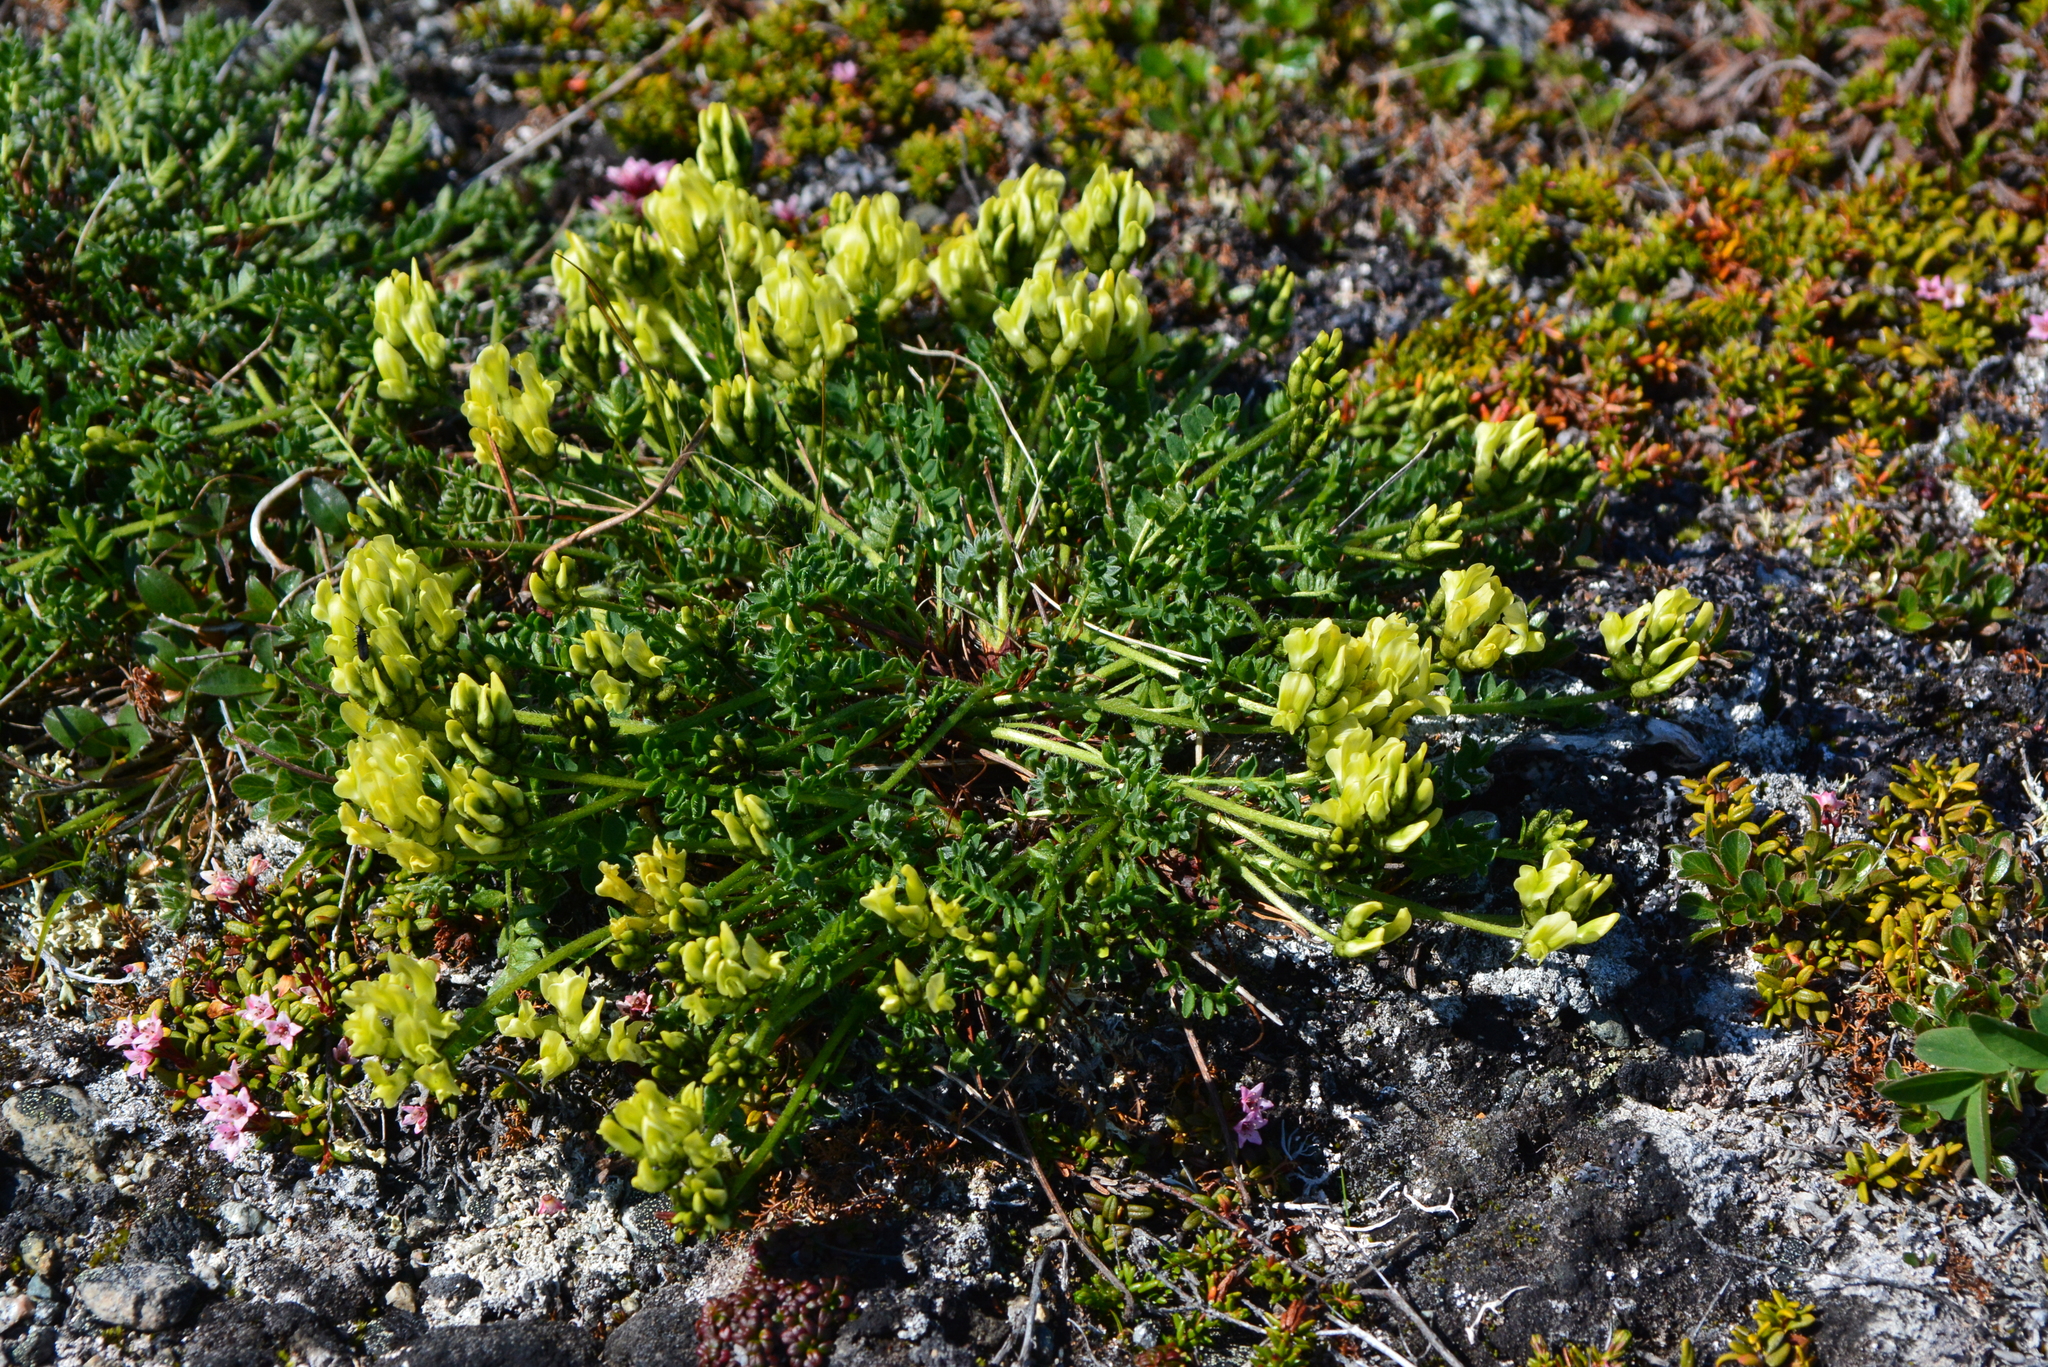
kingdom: Plantae
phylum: Tracheophyta
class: Magnoliopsida
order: Fabales
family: Fabaceae
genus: Oxytropis
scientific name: Oxytropis maydelliana
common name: Maydell's locoweed
